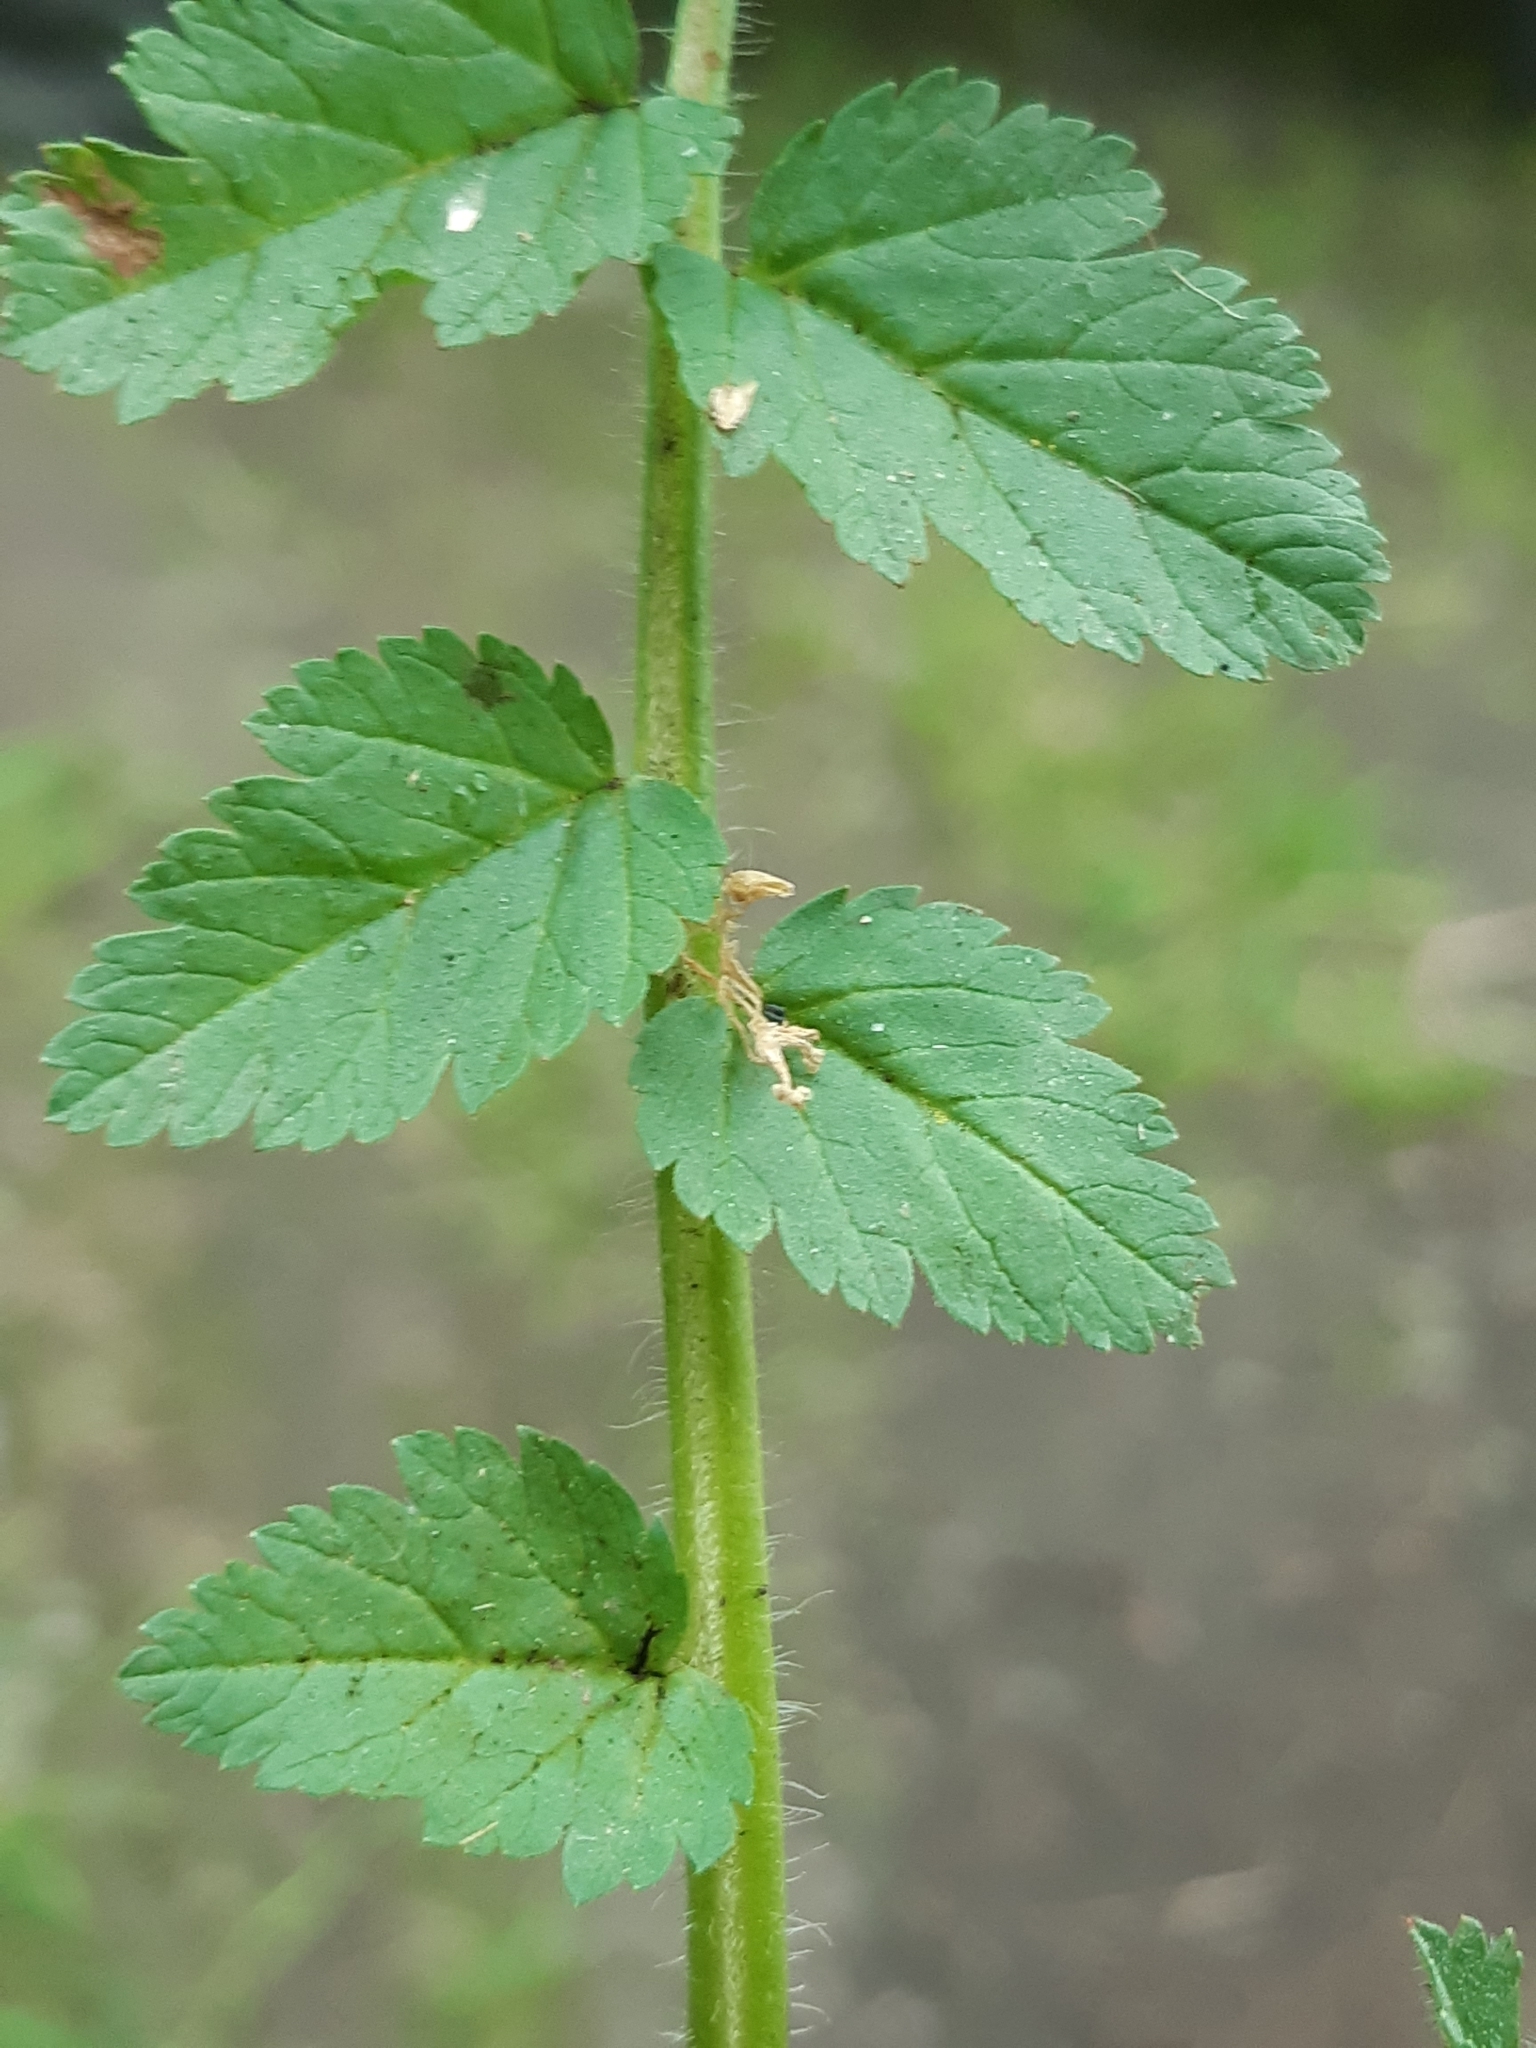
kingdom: Plantae
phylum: Tracheophyta
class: Magnoliopsida
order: Geraniales
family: Geraniaceae
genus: Erodium
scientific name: Erodium moschatum
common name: Musk stork's-bill
